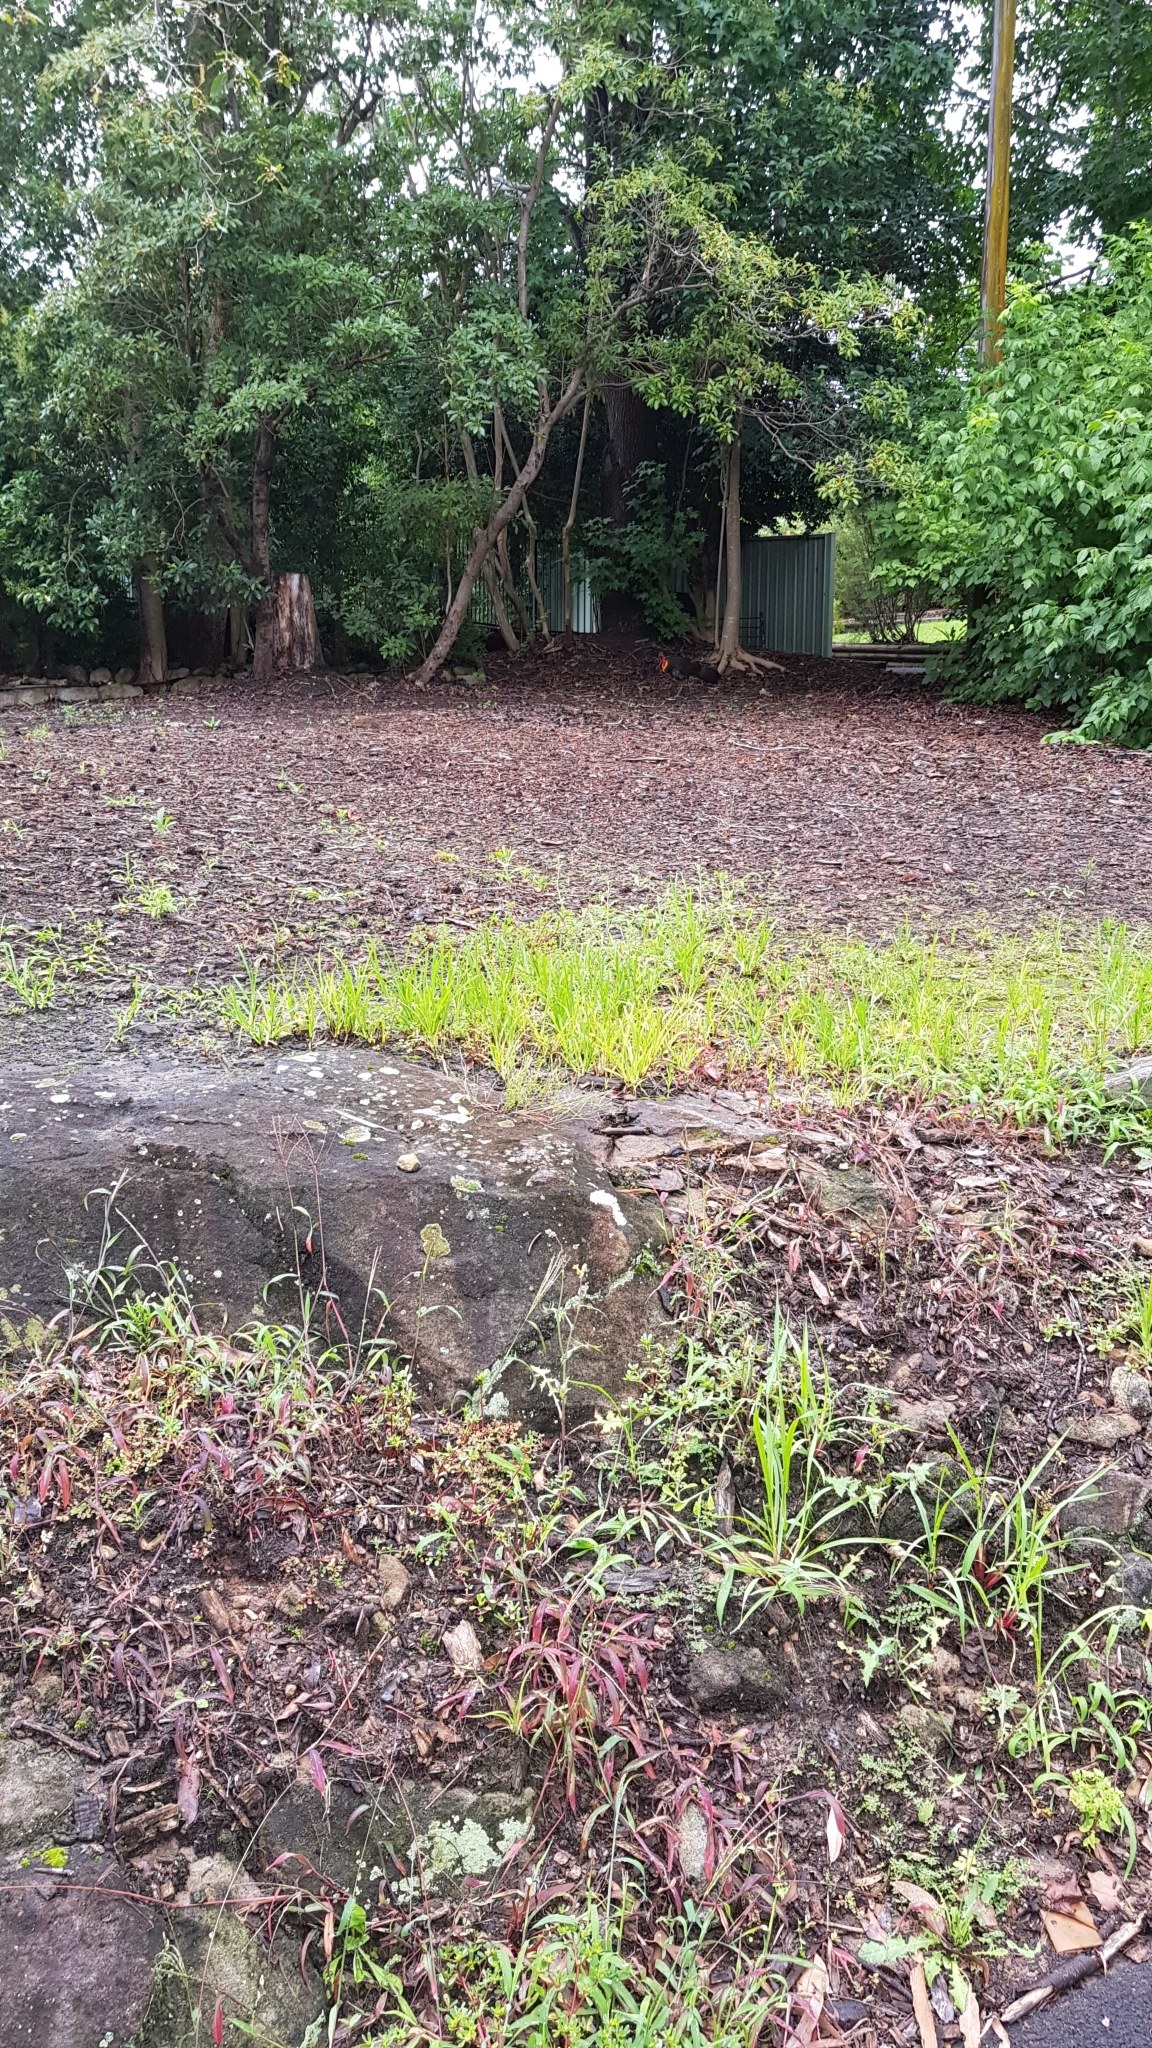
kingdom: Animalia
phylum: Chordata
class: Aves
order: Galliformes
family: Megapodiidae
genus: Alectura
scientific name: Alectura lathami
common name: Australian brushturkey
